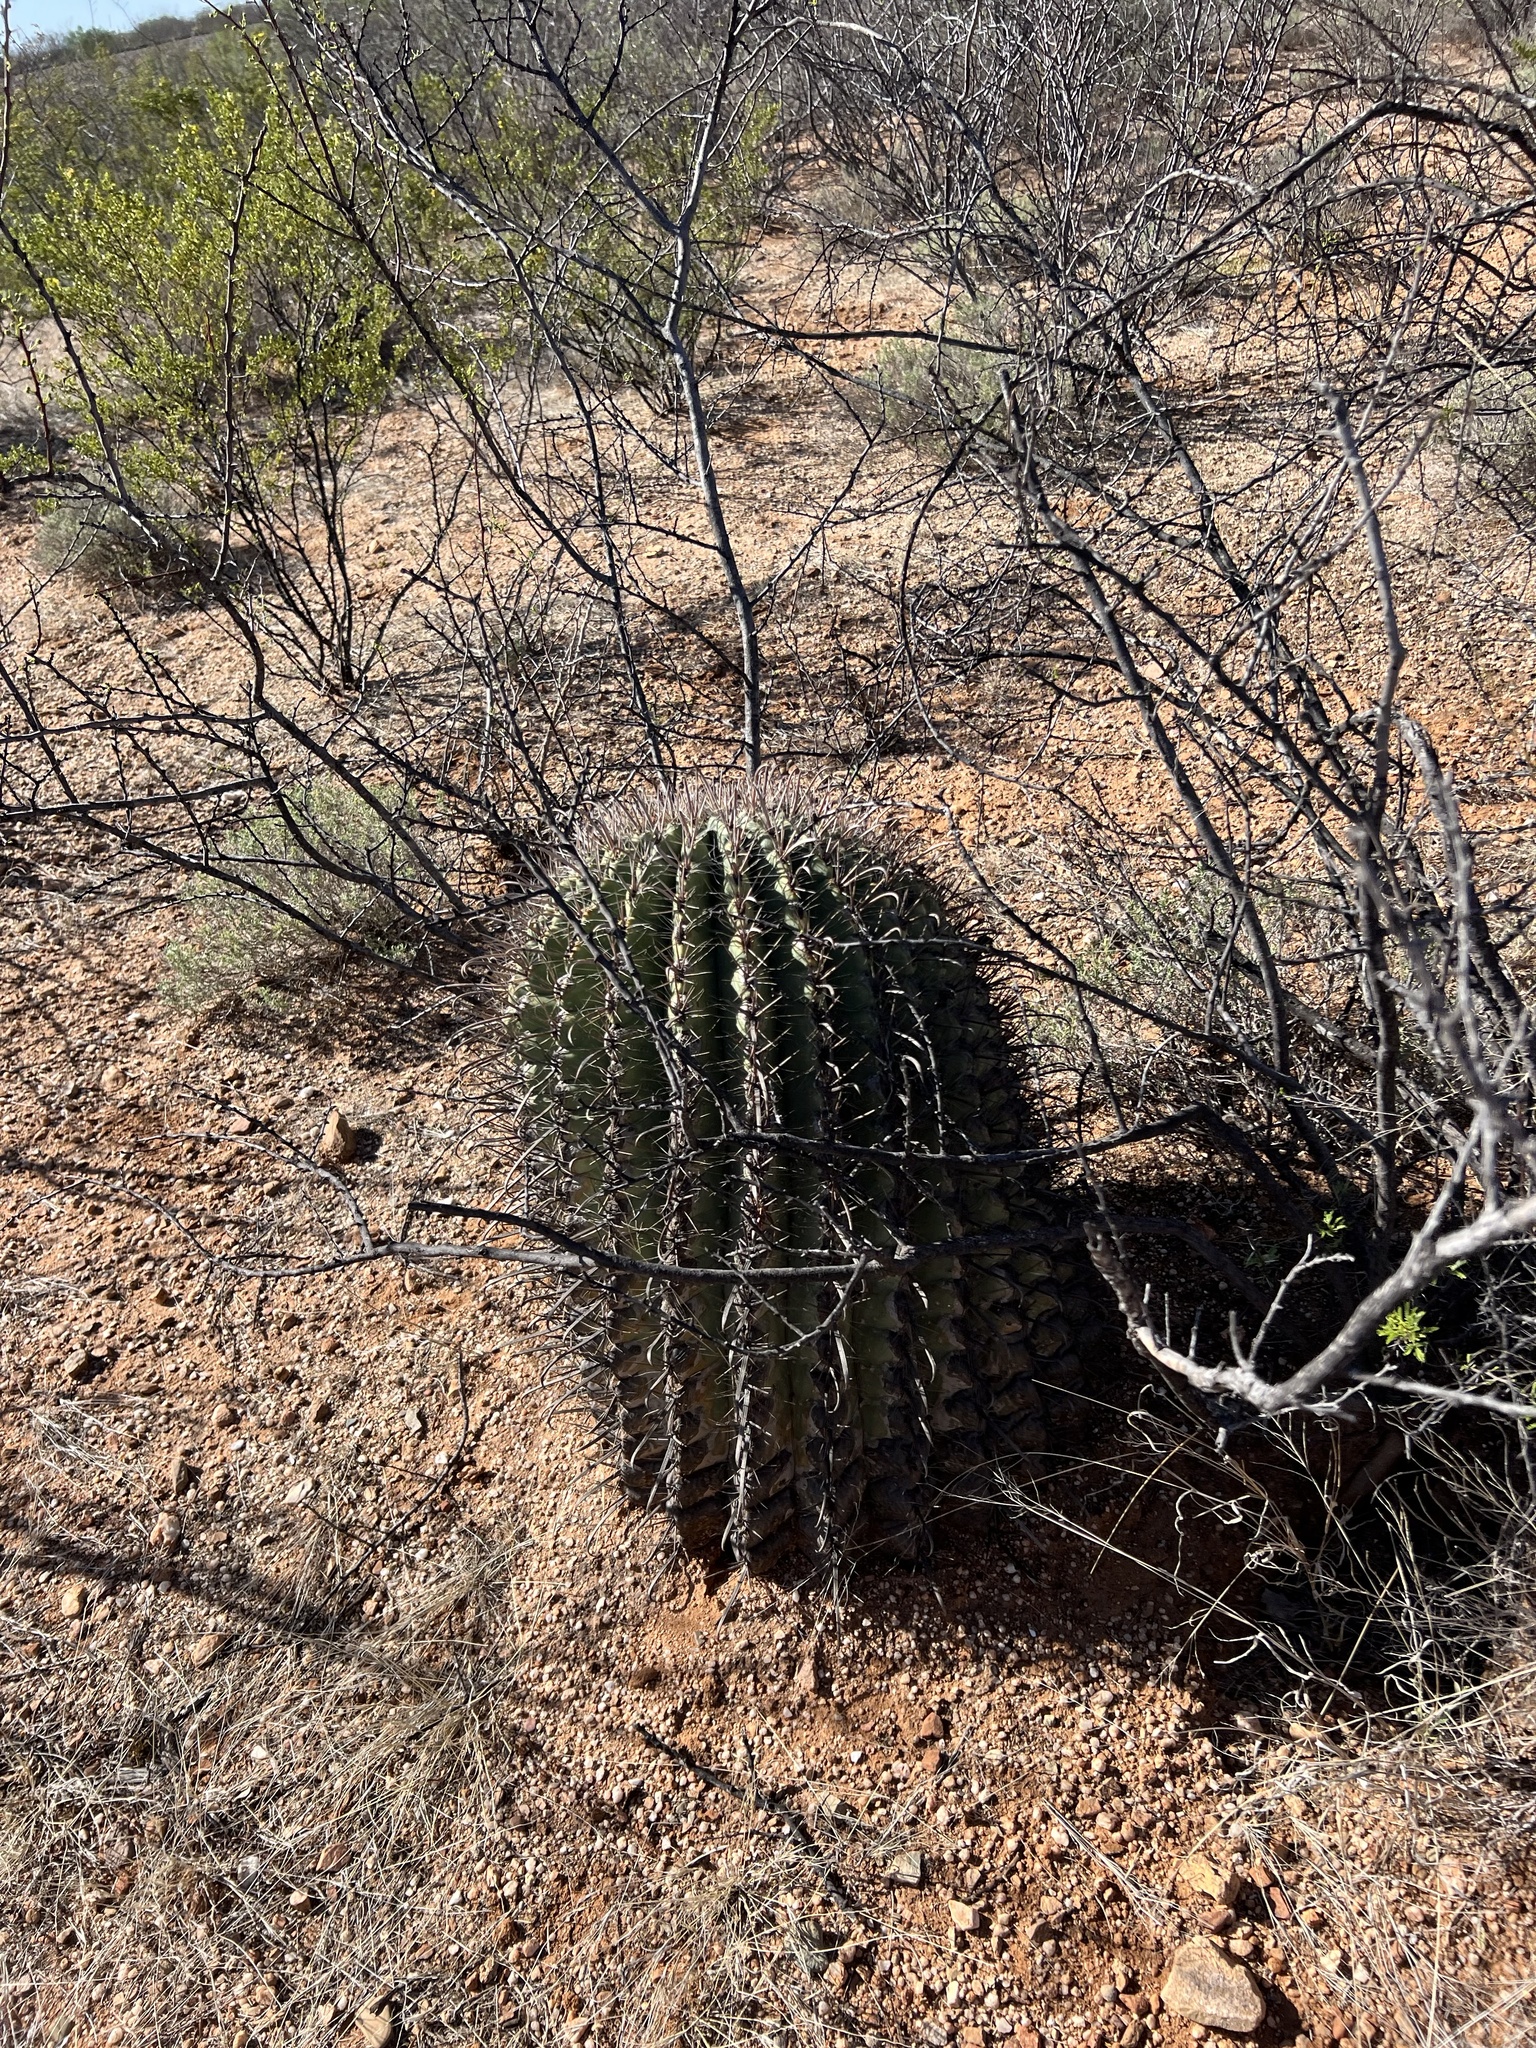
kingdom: Plantae
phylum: Tracheophyta
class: Magnoliopsida
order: Caryophyllales
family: Cactaceae
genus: Ferocactus
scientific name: Ferocactus wislizeni
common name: Candy barrel cactus
